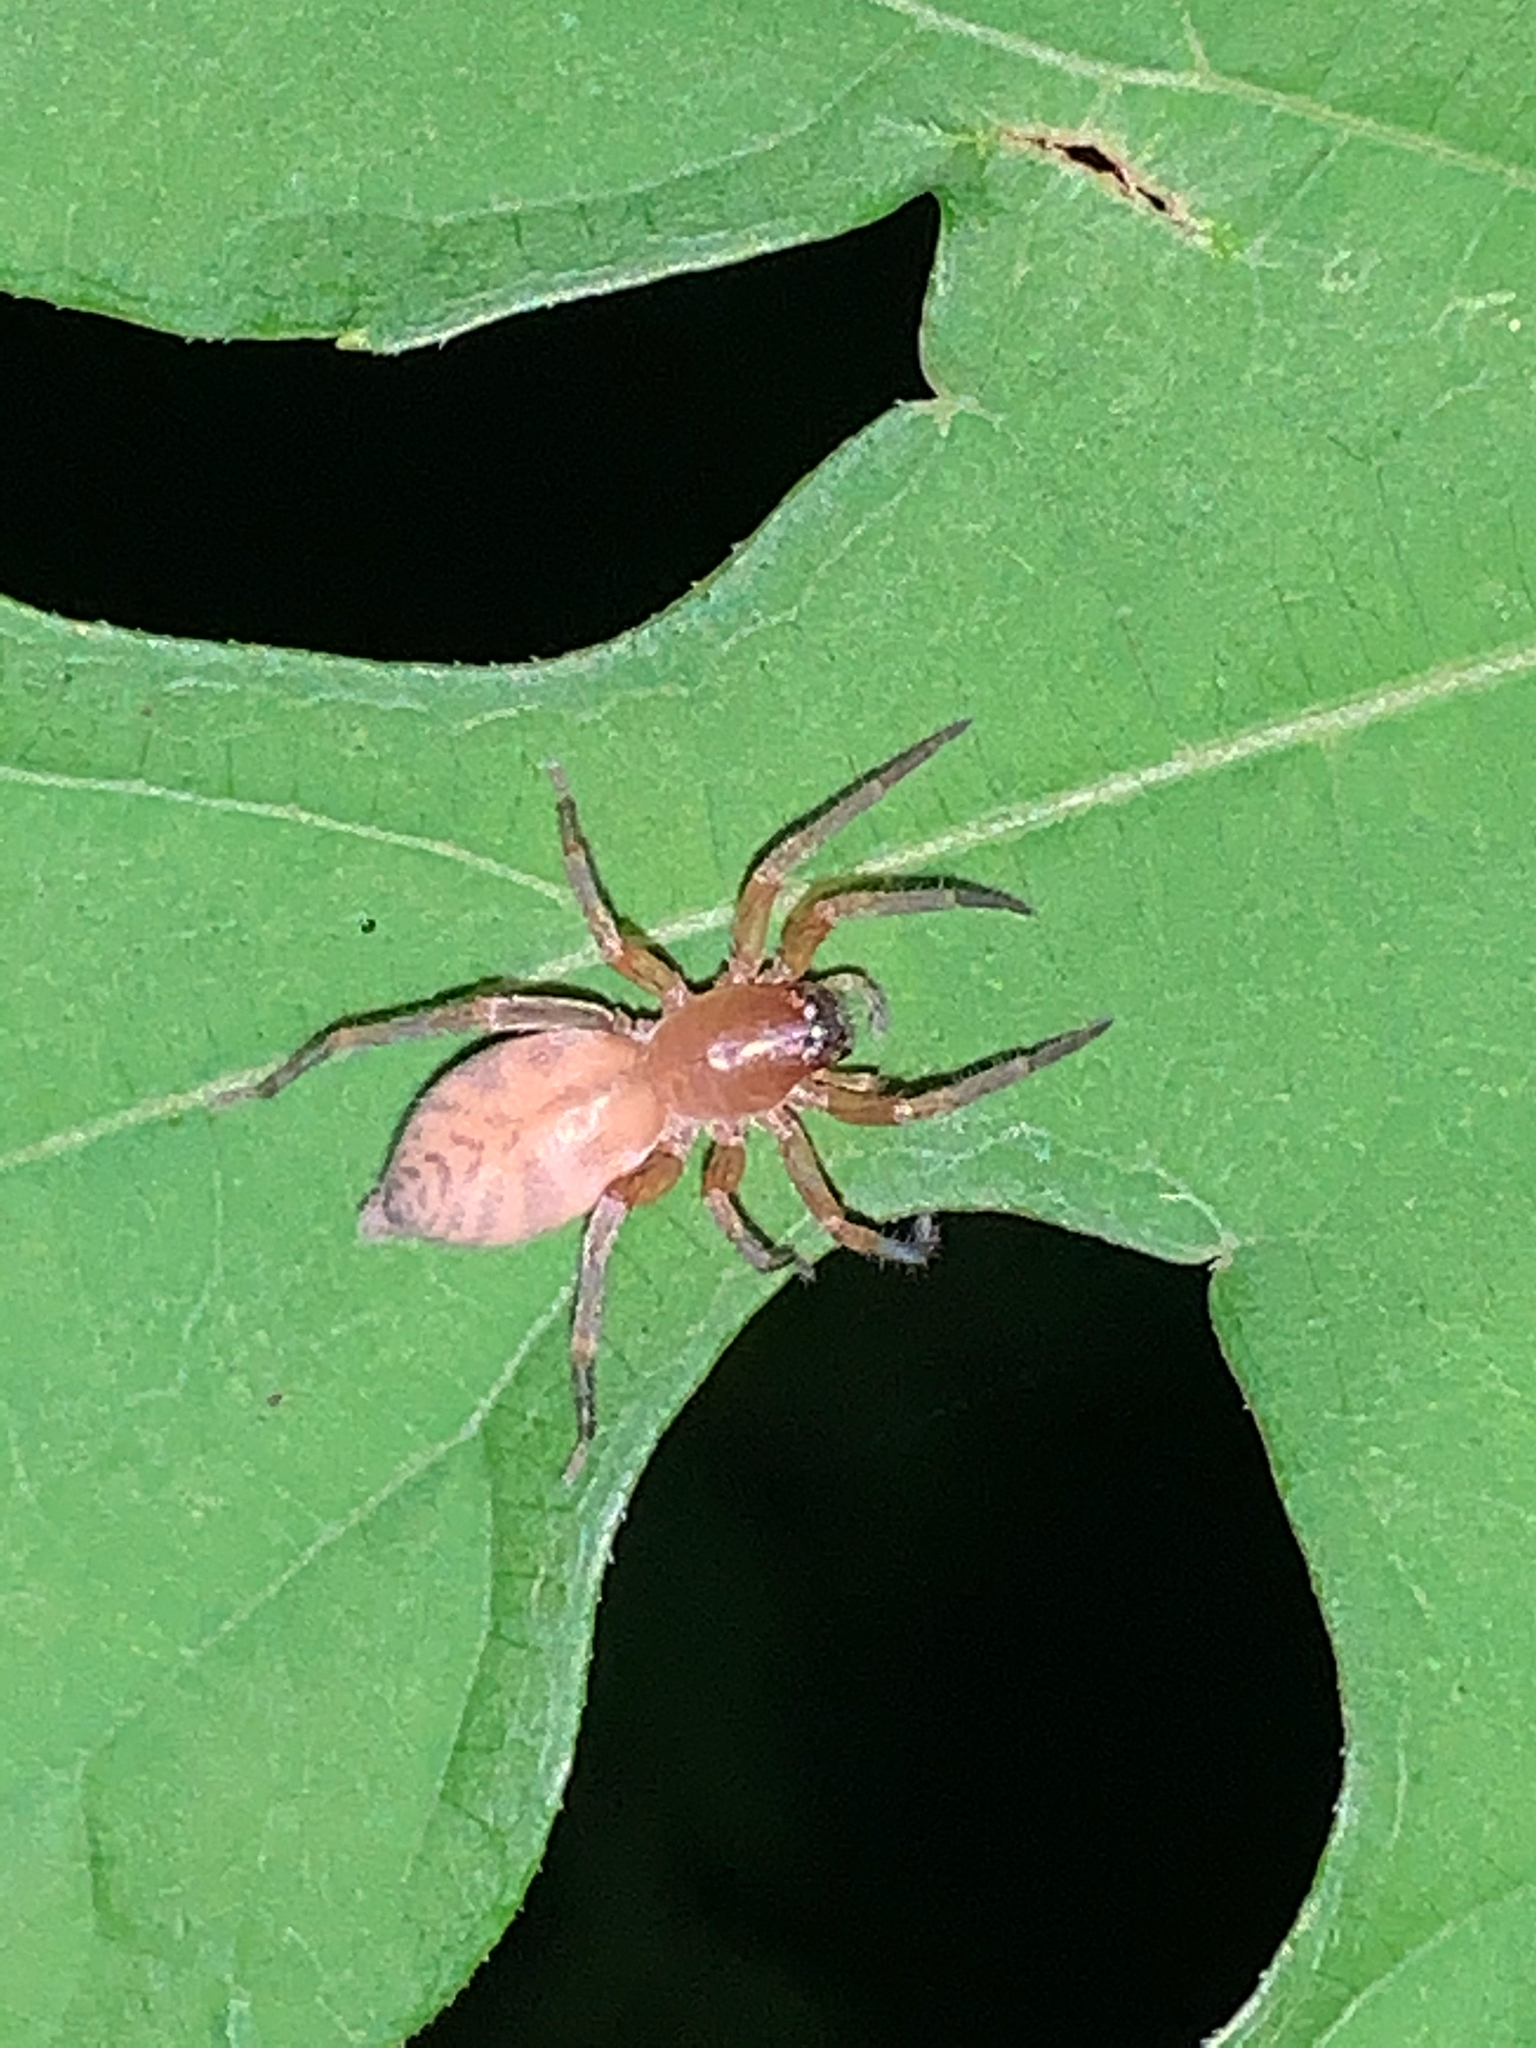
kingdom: Animalia
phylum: Arthropoda
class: Arachnida
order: Araneae
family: Clubionidae
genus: Elaver
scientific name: Elaver excepta
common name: White sac spider
